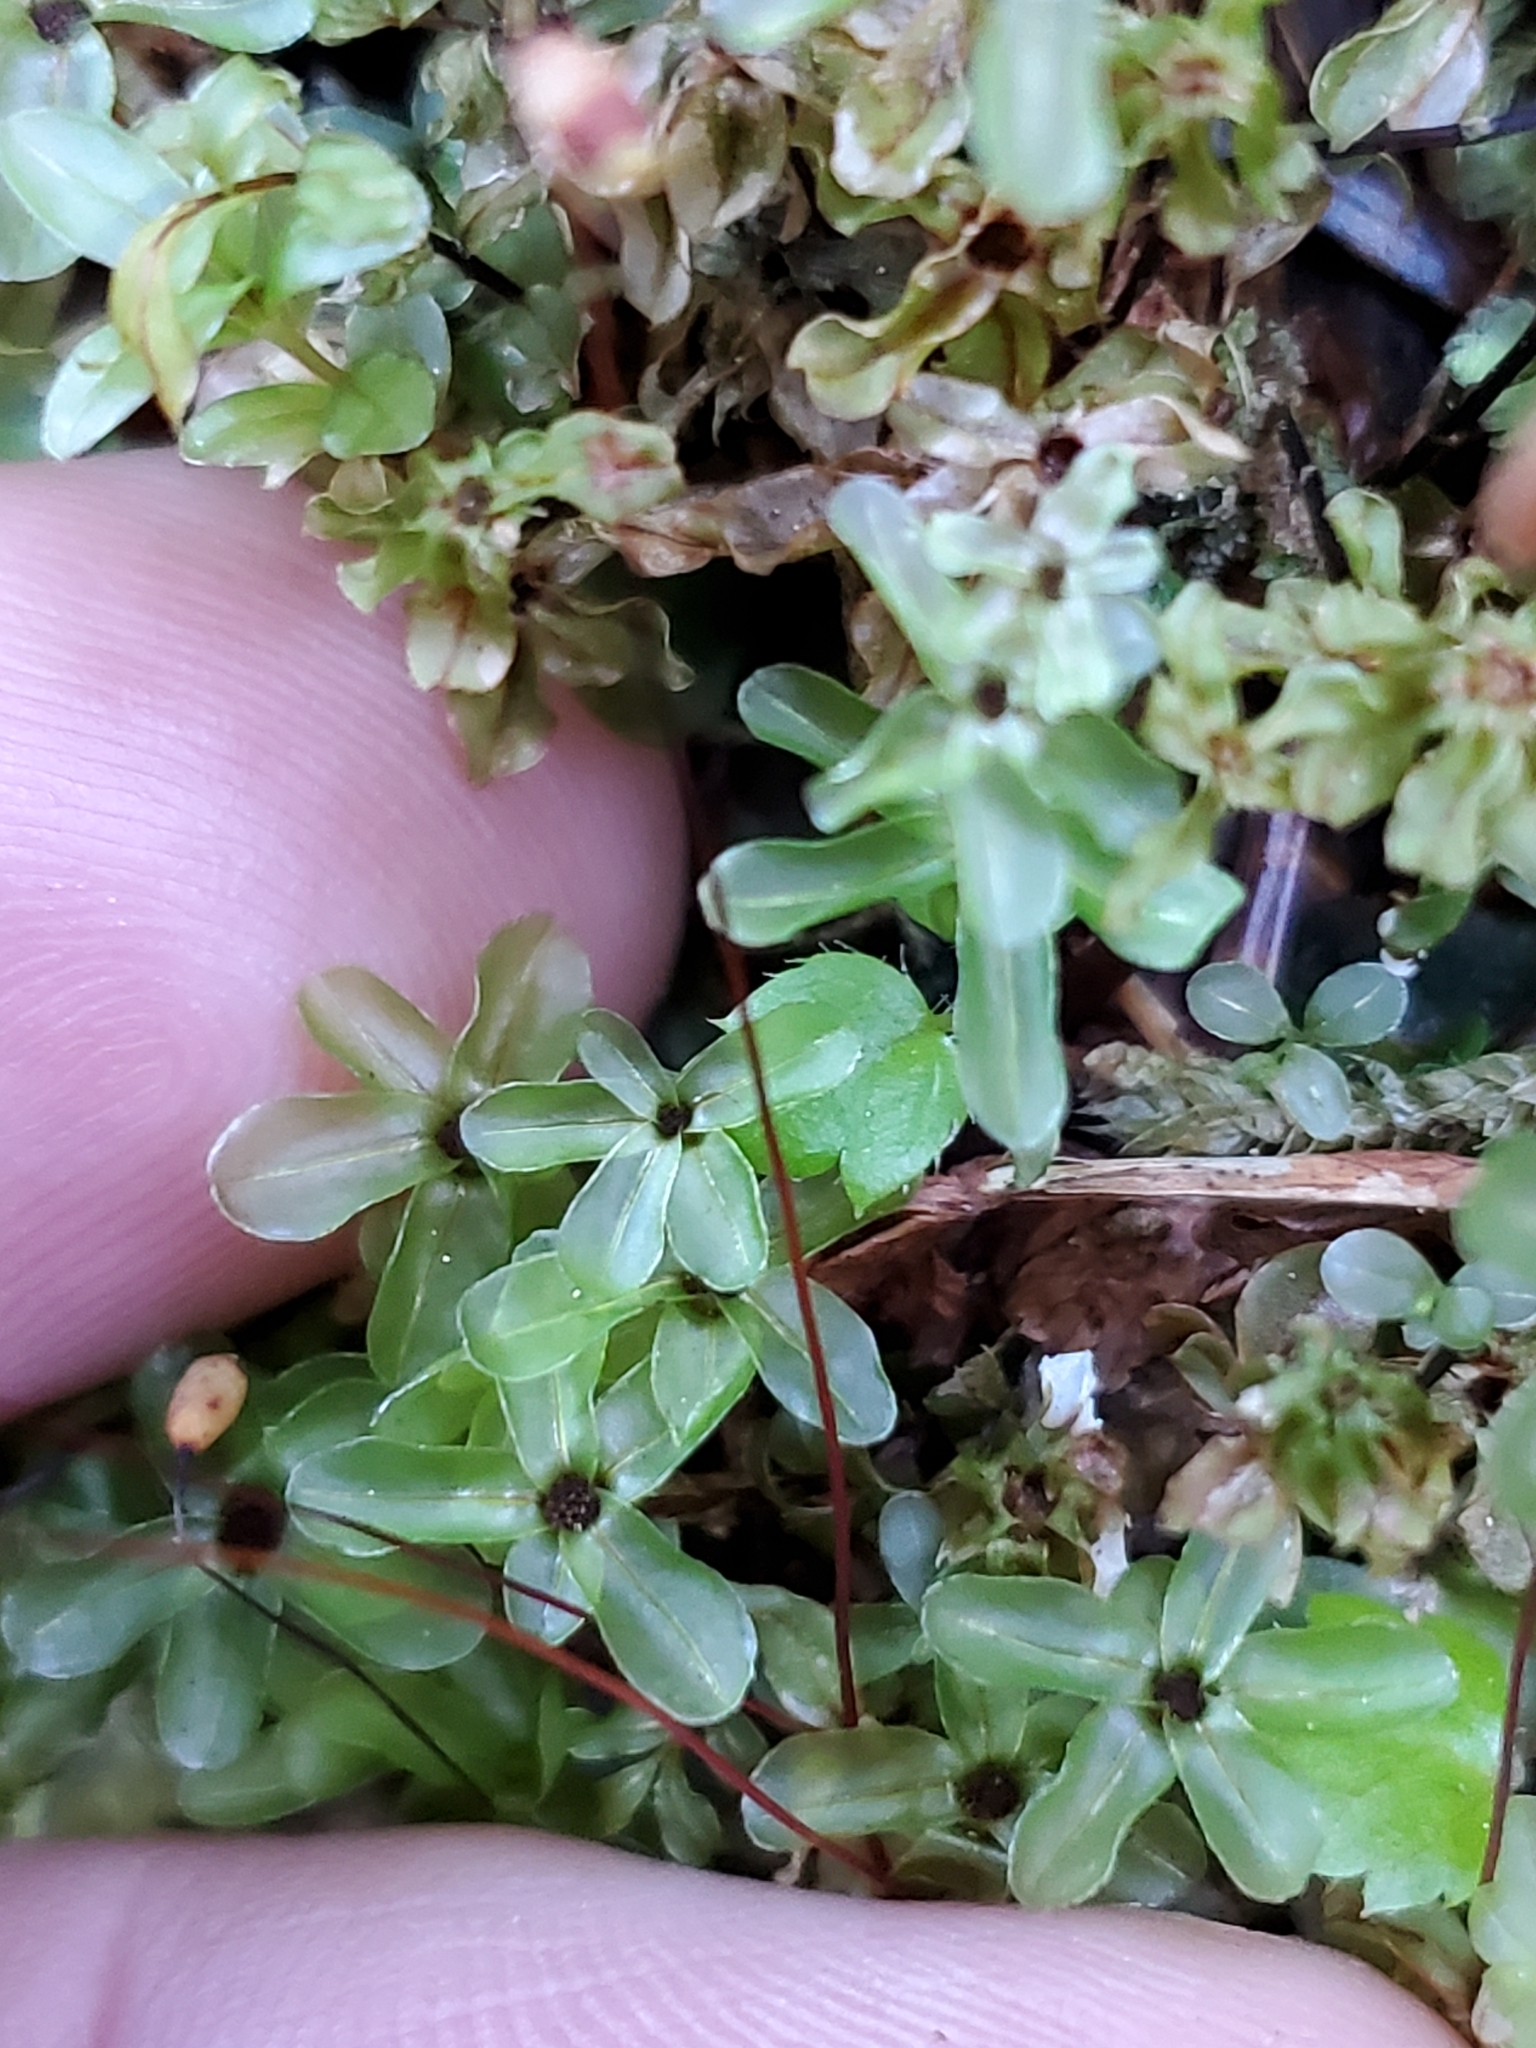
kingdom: Plantae
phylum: Bryophyta
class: Bryopsida
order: Bryales
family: Mniaceae
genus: Rhizomnium
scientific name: Rhizomnium glabrescens
